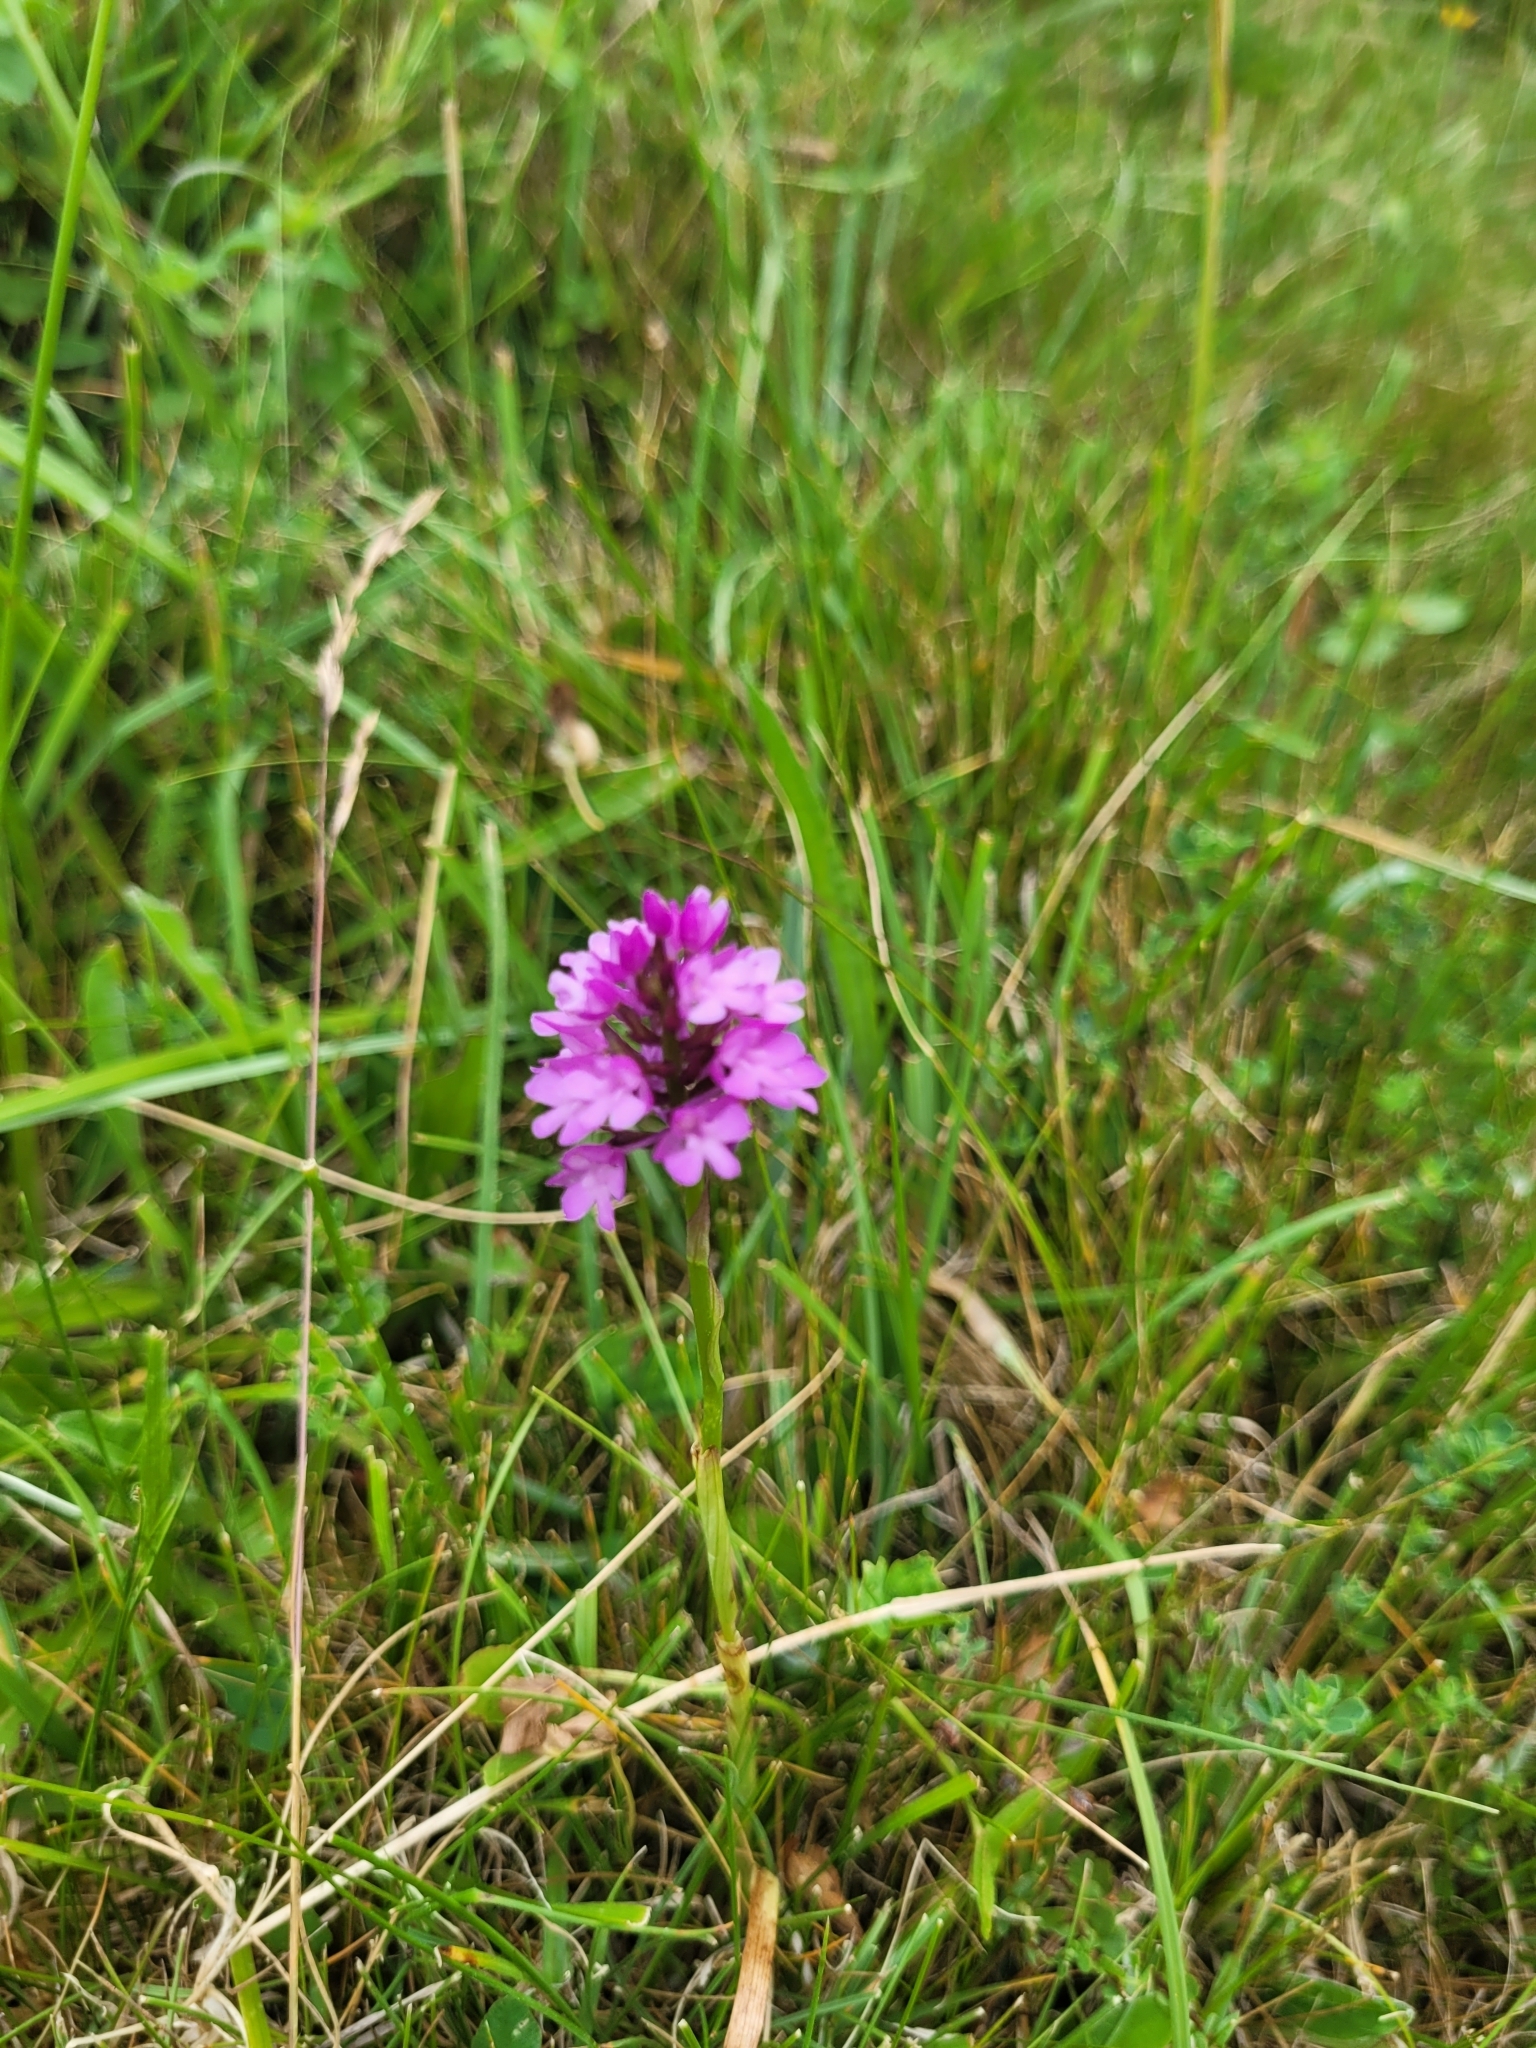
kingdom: Plantae
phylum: Tracheophyta
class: Liliopsida
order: Asparagales
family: Orchidaceae
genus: Anacamptis
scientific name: Anacamptis pyramidalis
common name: Pyramidal orchid
